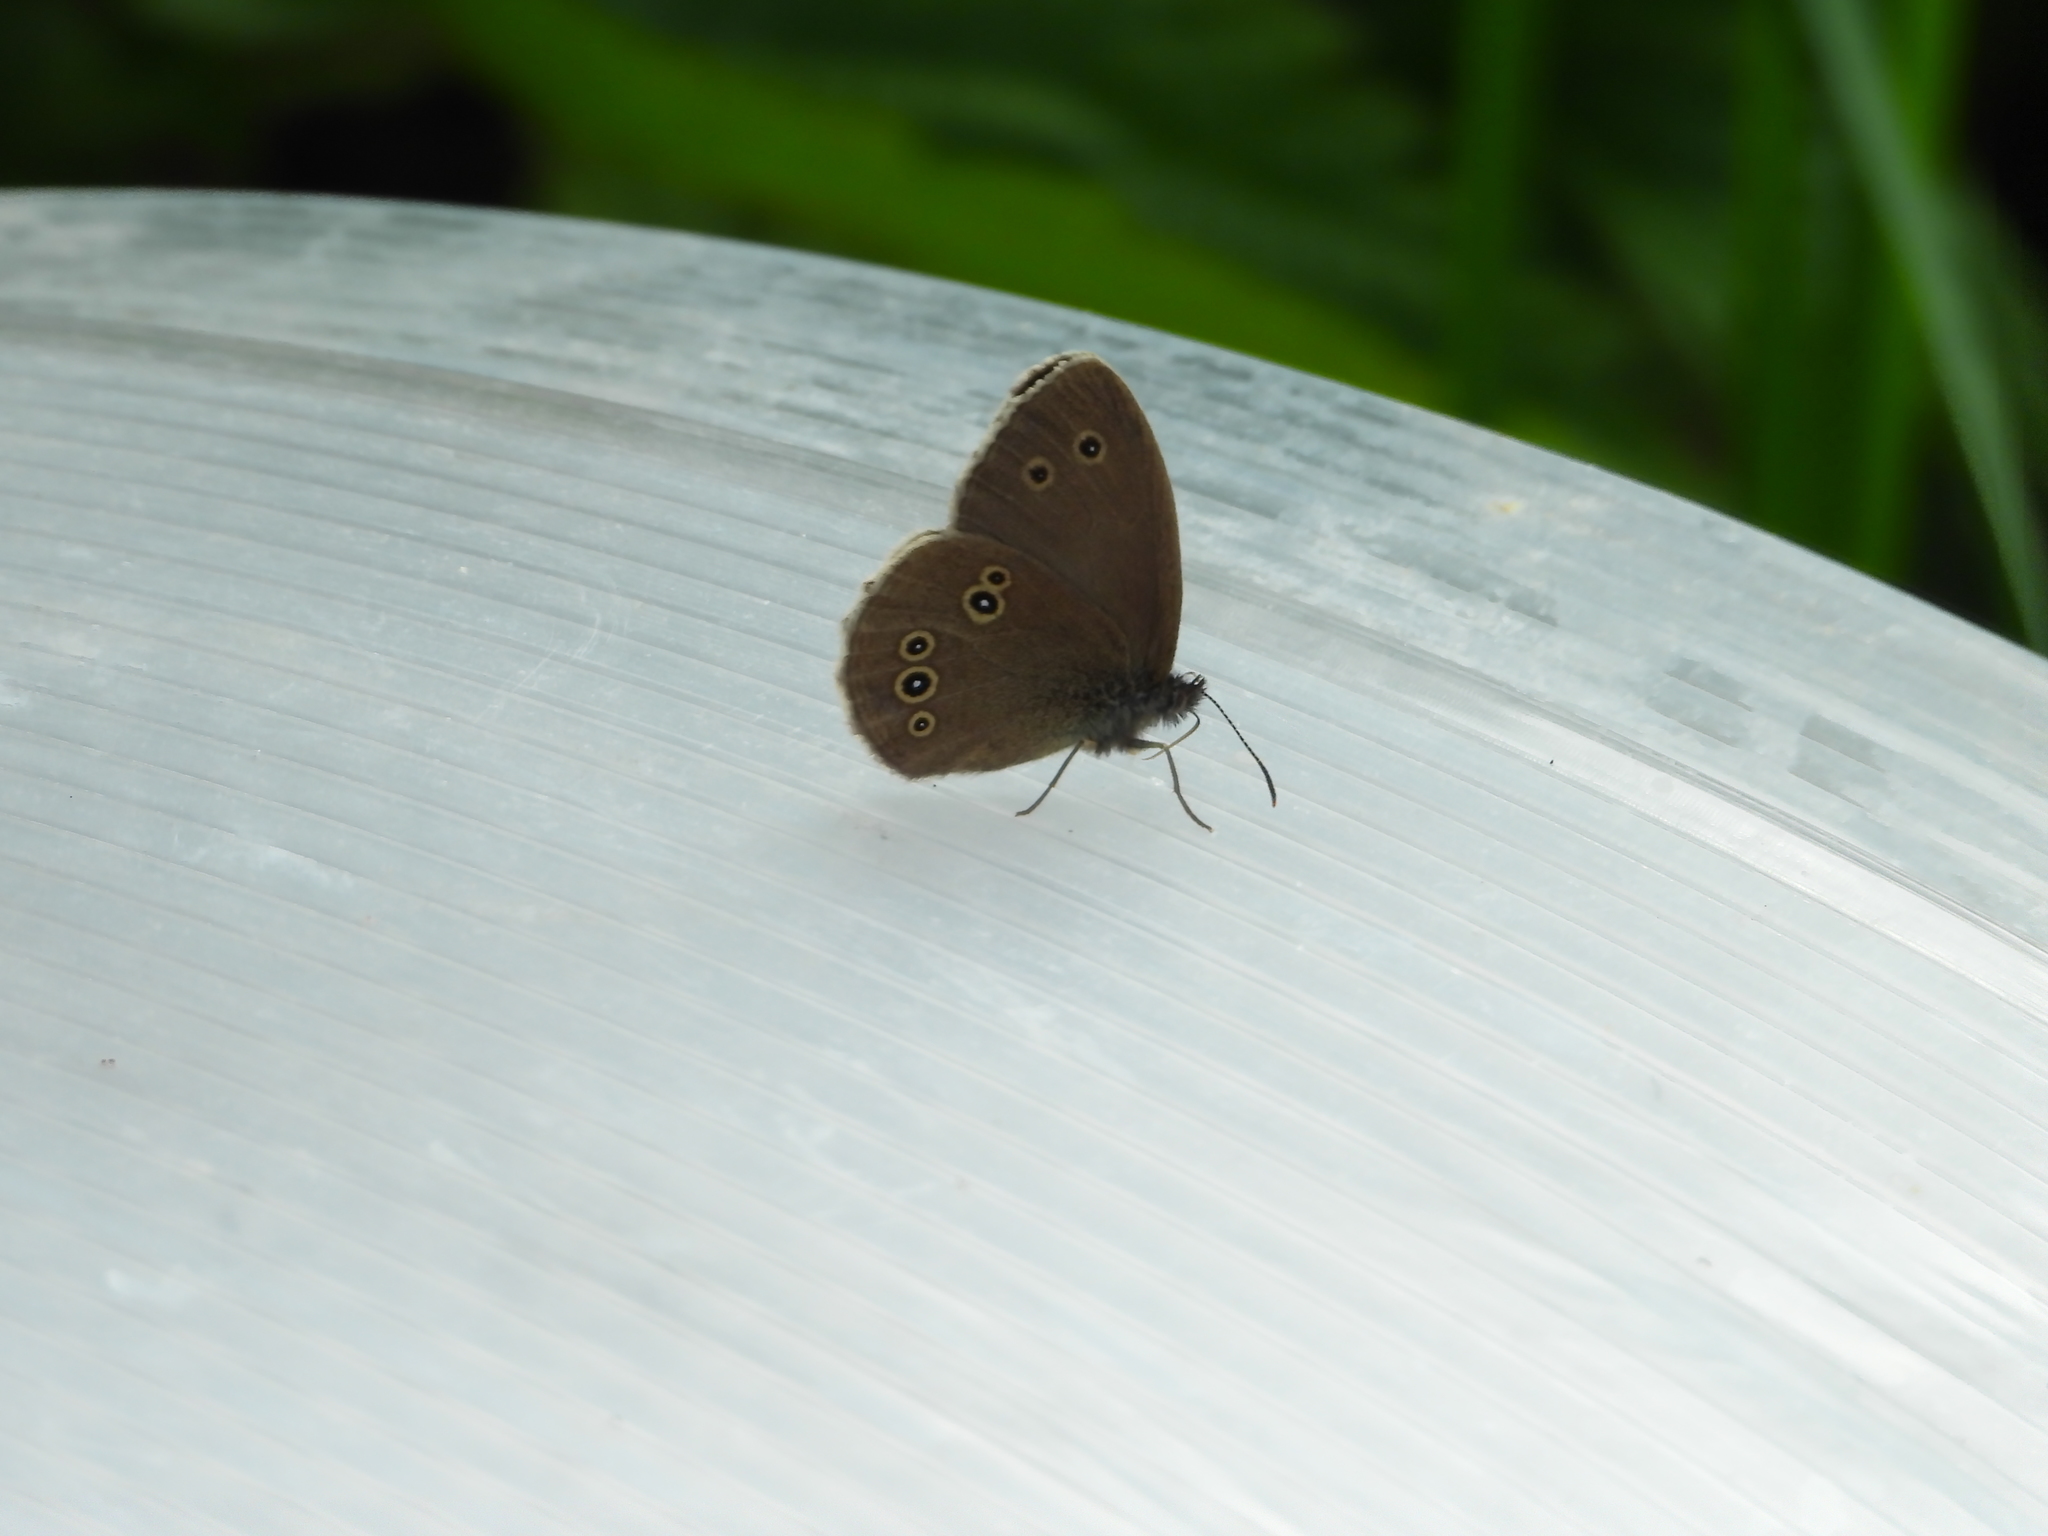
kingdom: Animalia
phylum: Arthropoda
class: Insecta
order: Lepidoptera
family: Nymphalidae
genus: Aphantopus
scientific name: Aphantopus hyperantus
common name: Ringlet
